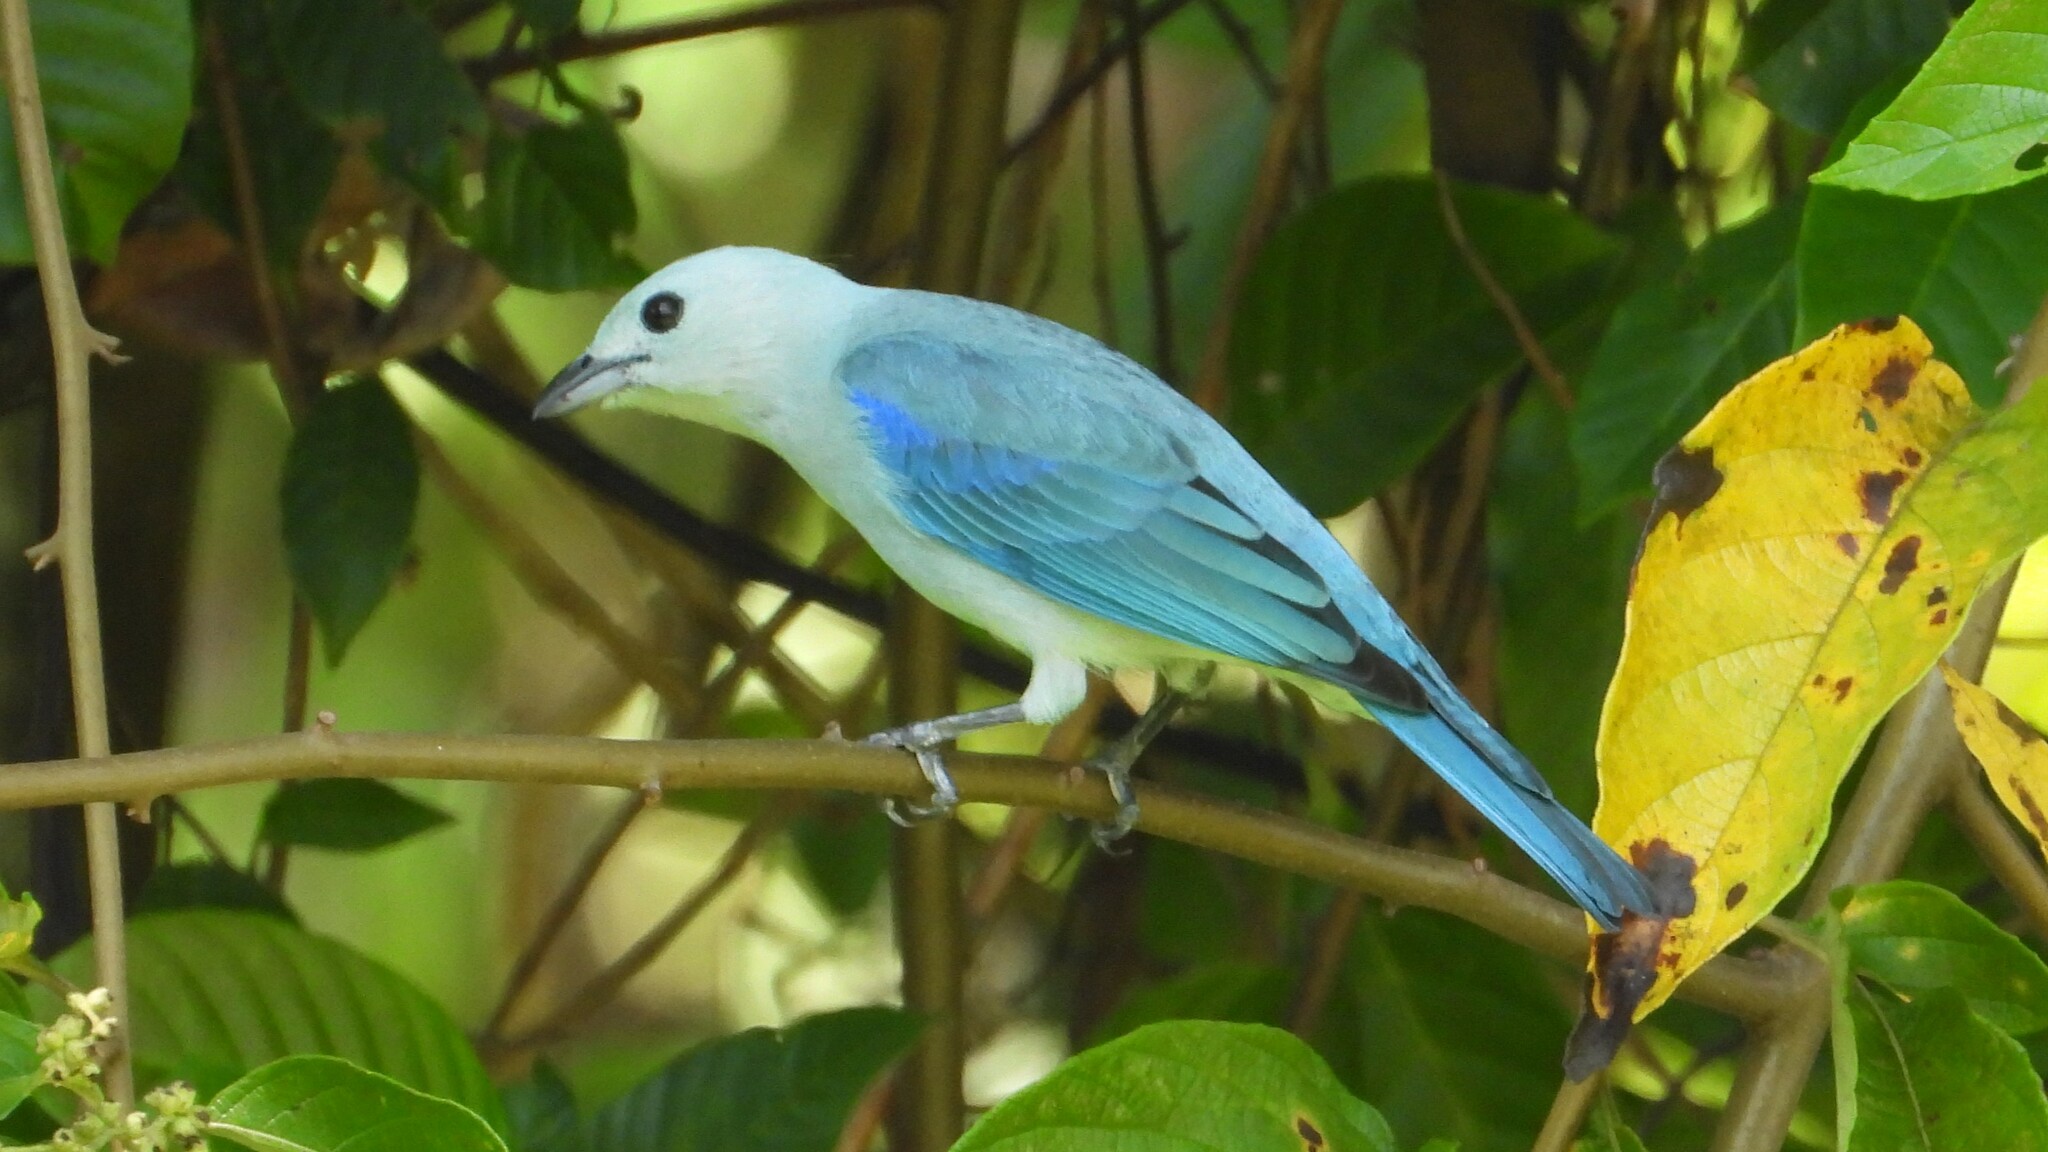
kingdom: Animalia
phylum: Chordata
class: Aves
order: Passeriformes
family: Thraupidae
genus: Thraupis
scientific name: Thraupis episcopus
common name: Blue-grey tanager
